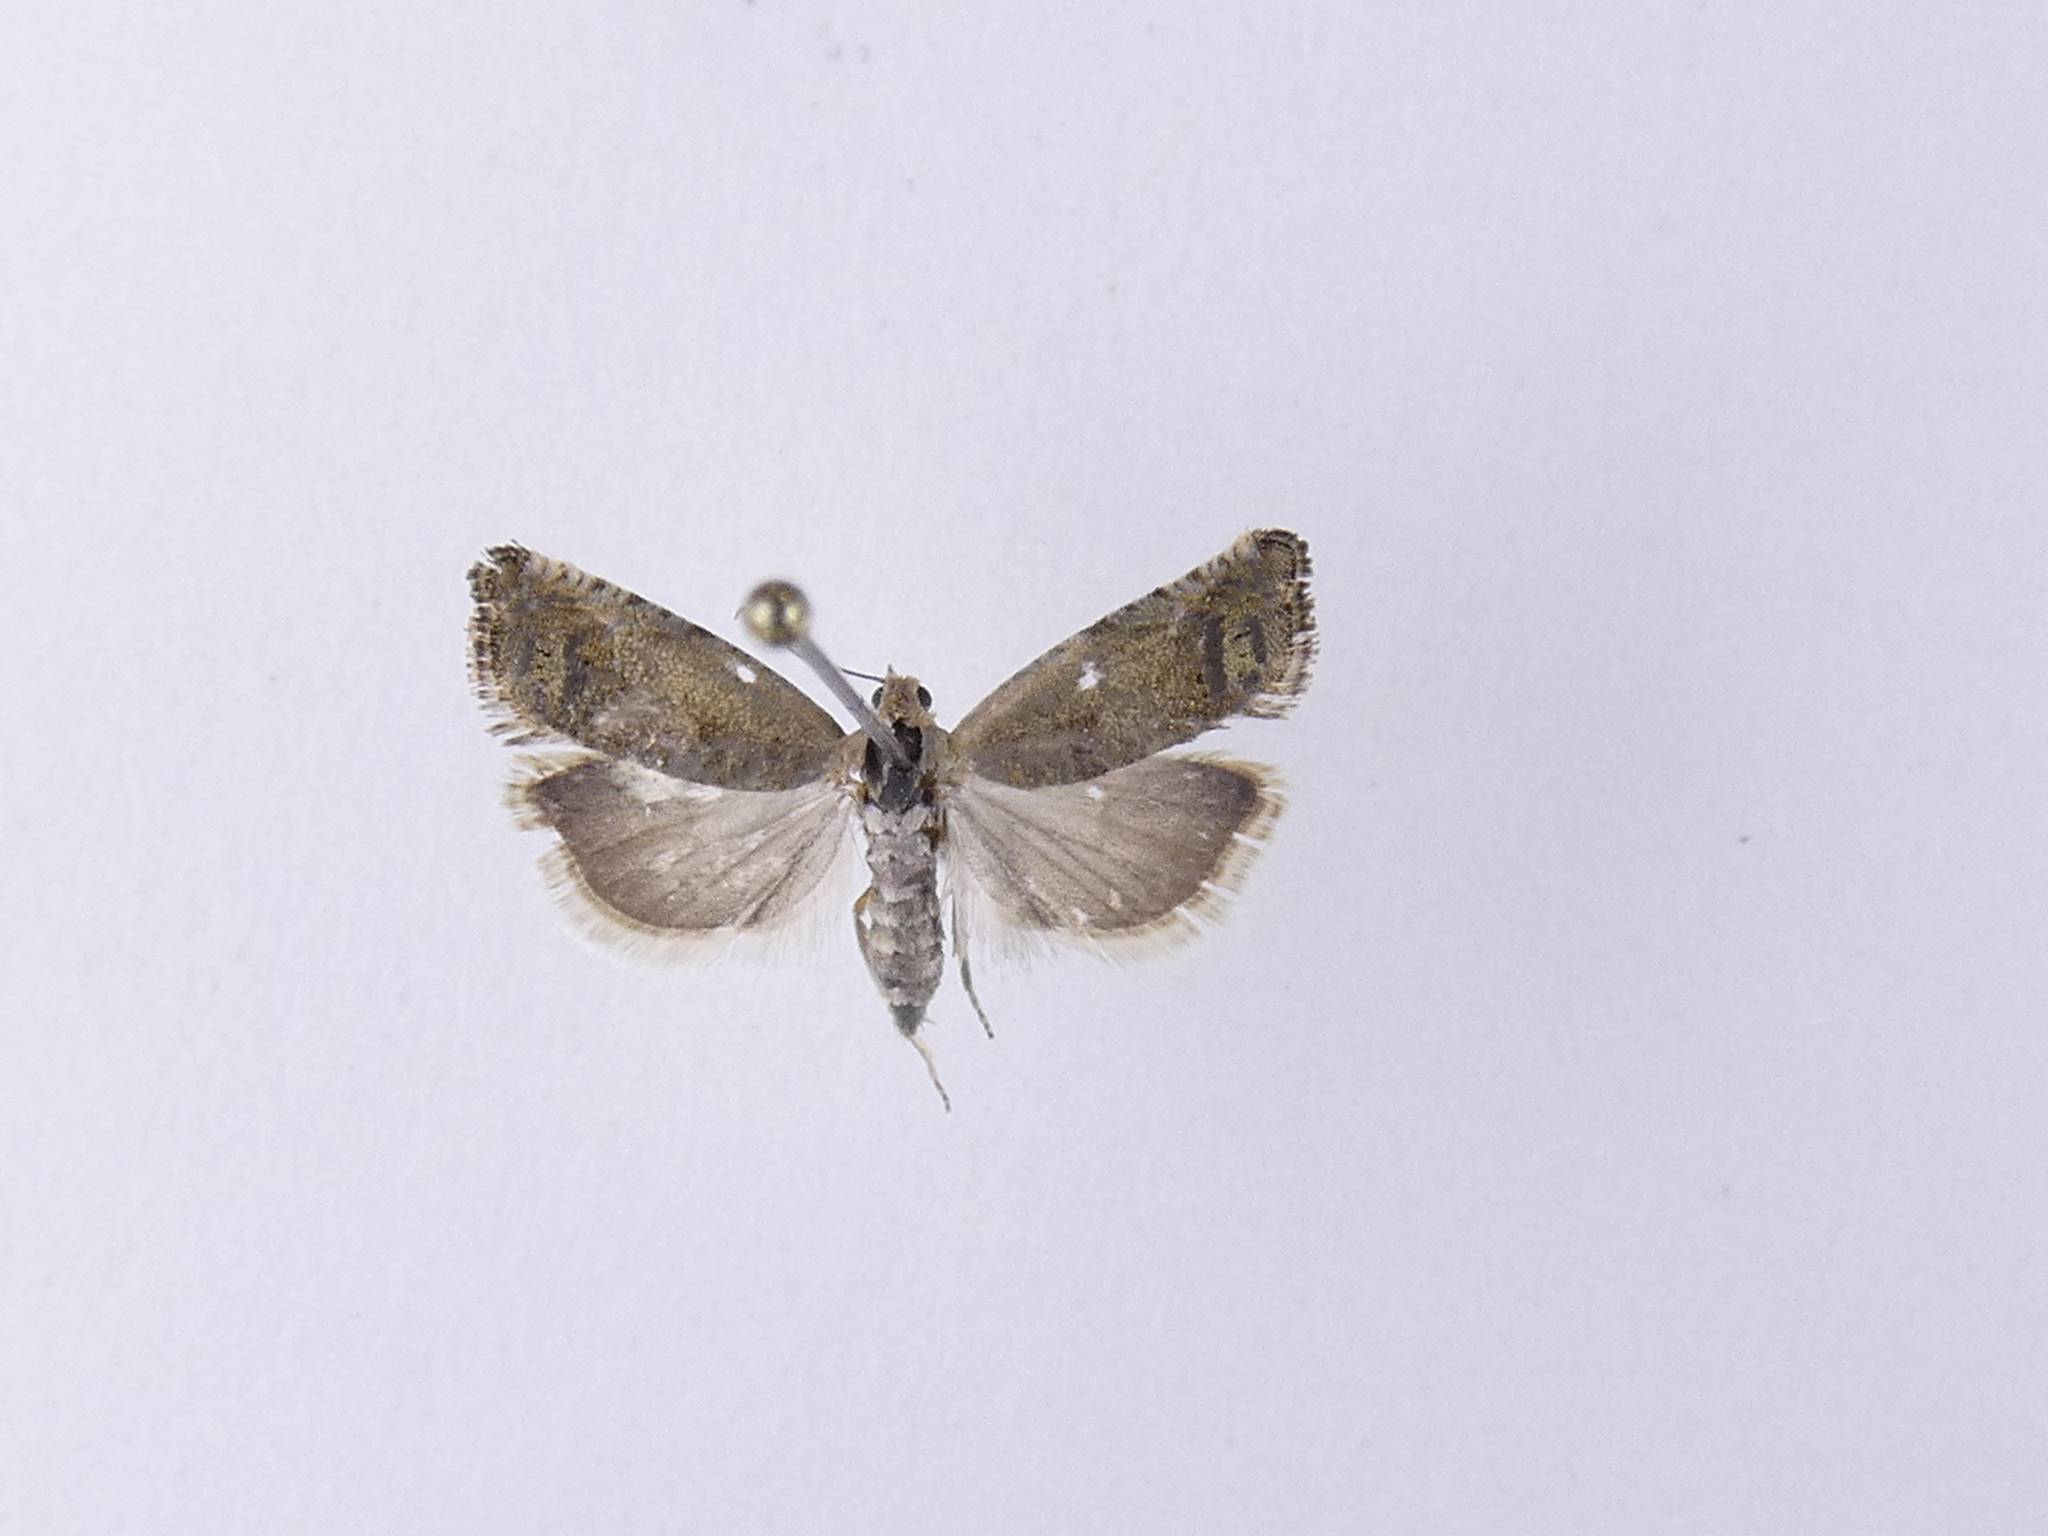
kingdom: Animalia
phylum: Arthropoda
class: Insecta
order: Lepidoptera
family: Tortricidae
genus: Cydia
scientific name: Cydia succedana
